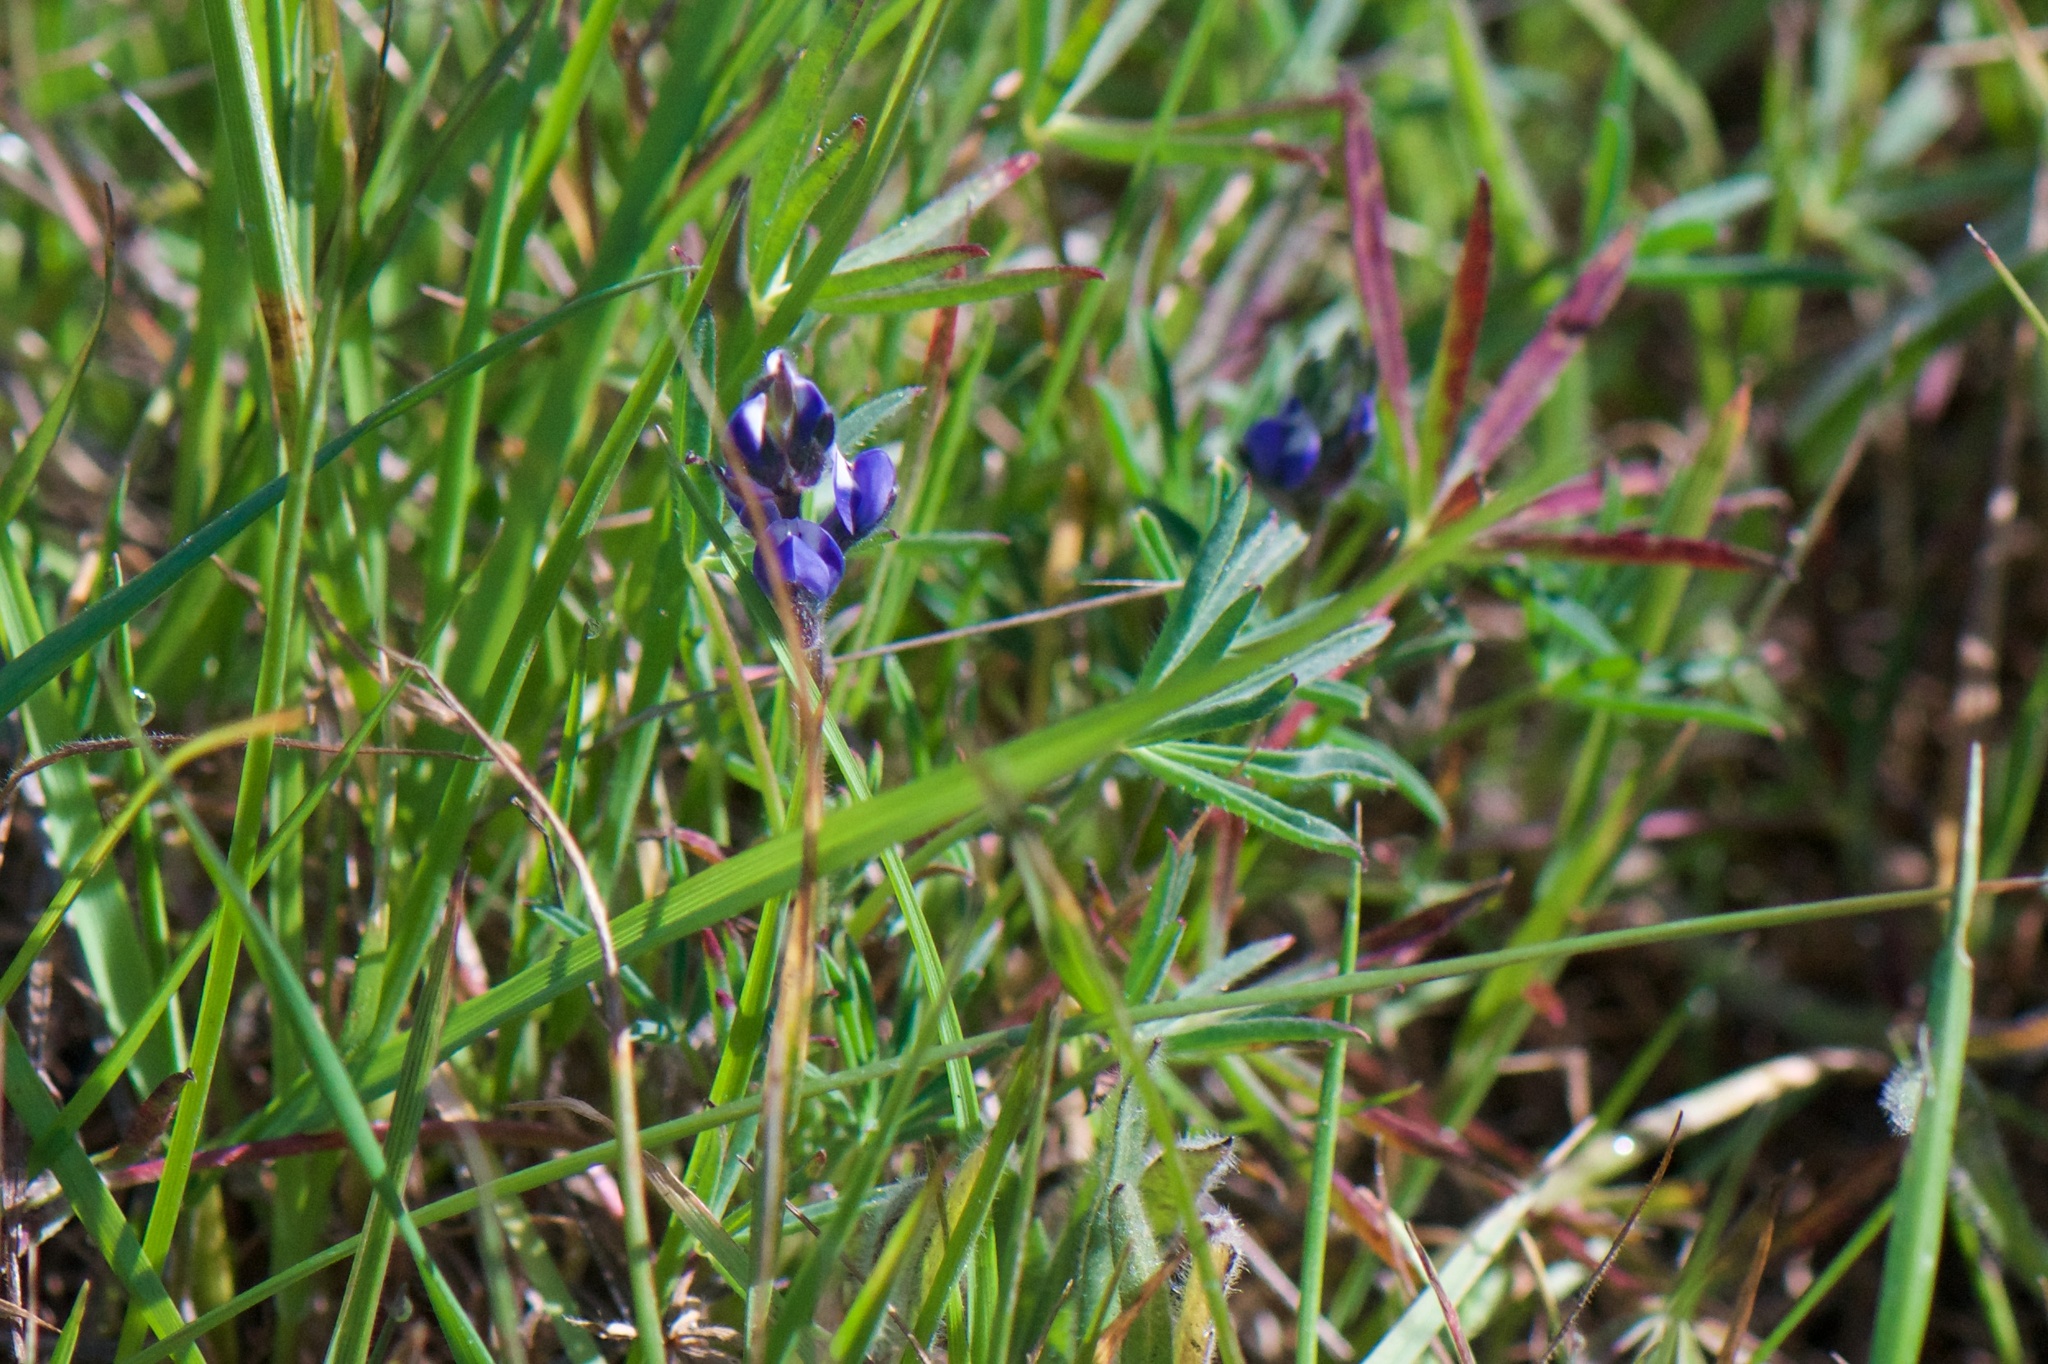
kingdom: Plantae
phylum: Tracheophyta
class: Magnoliopsida
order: Fabales
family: Fabaceae
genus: Lupinus
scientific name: Lupinus bicolor
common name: Miniature lupine
